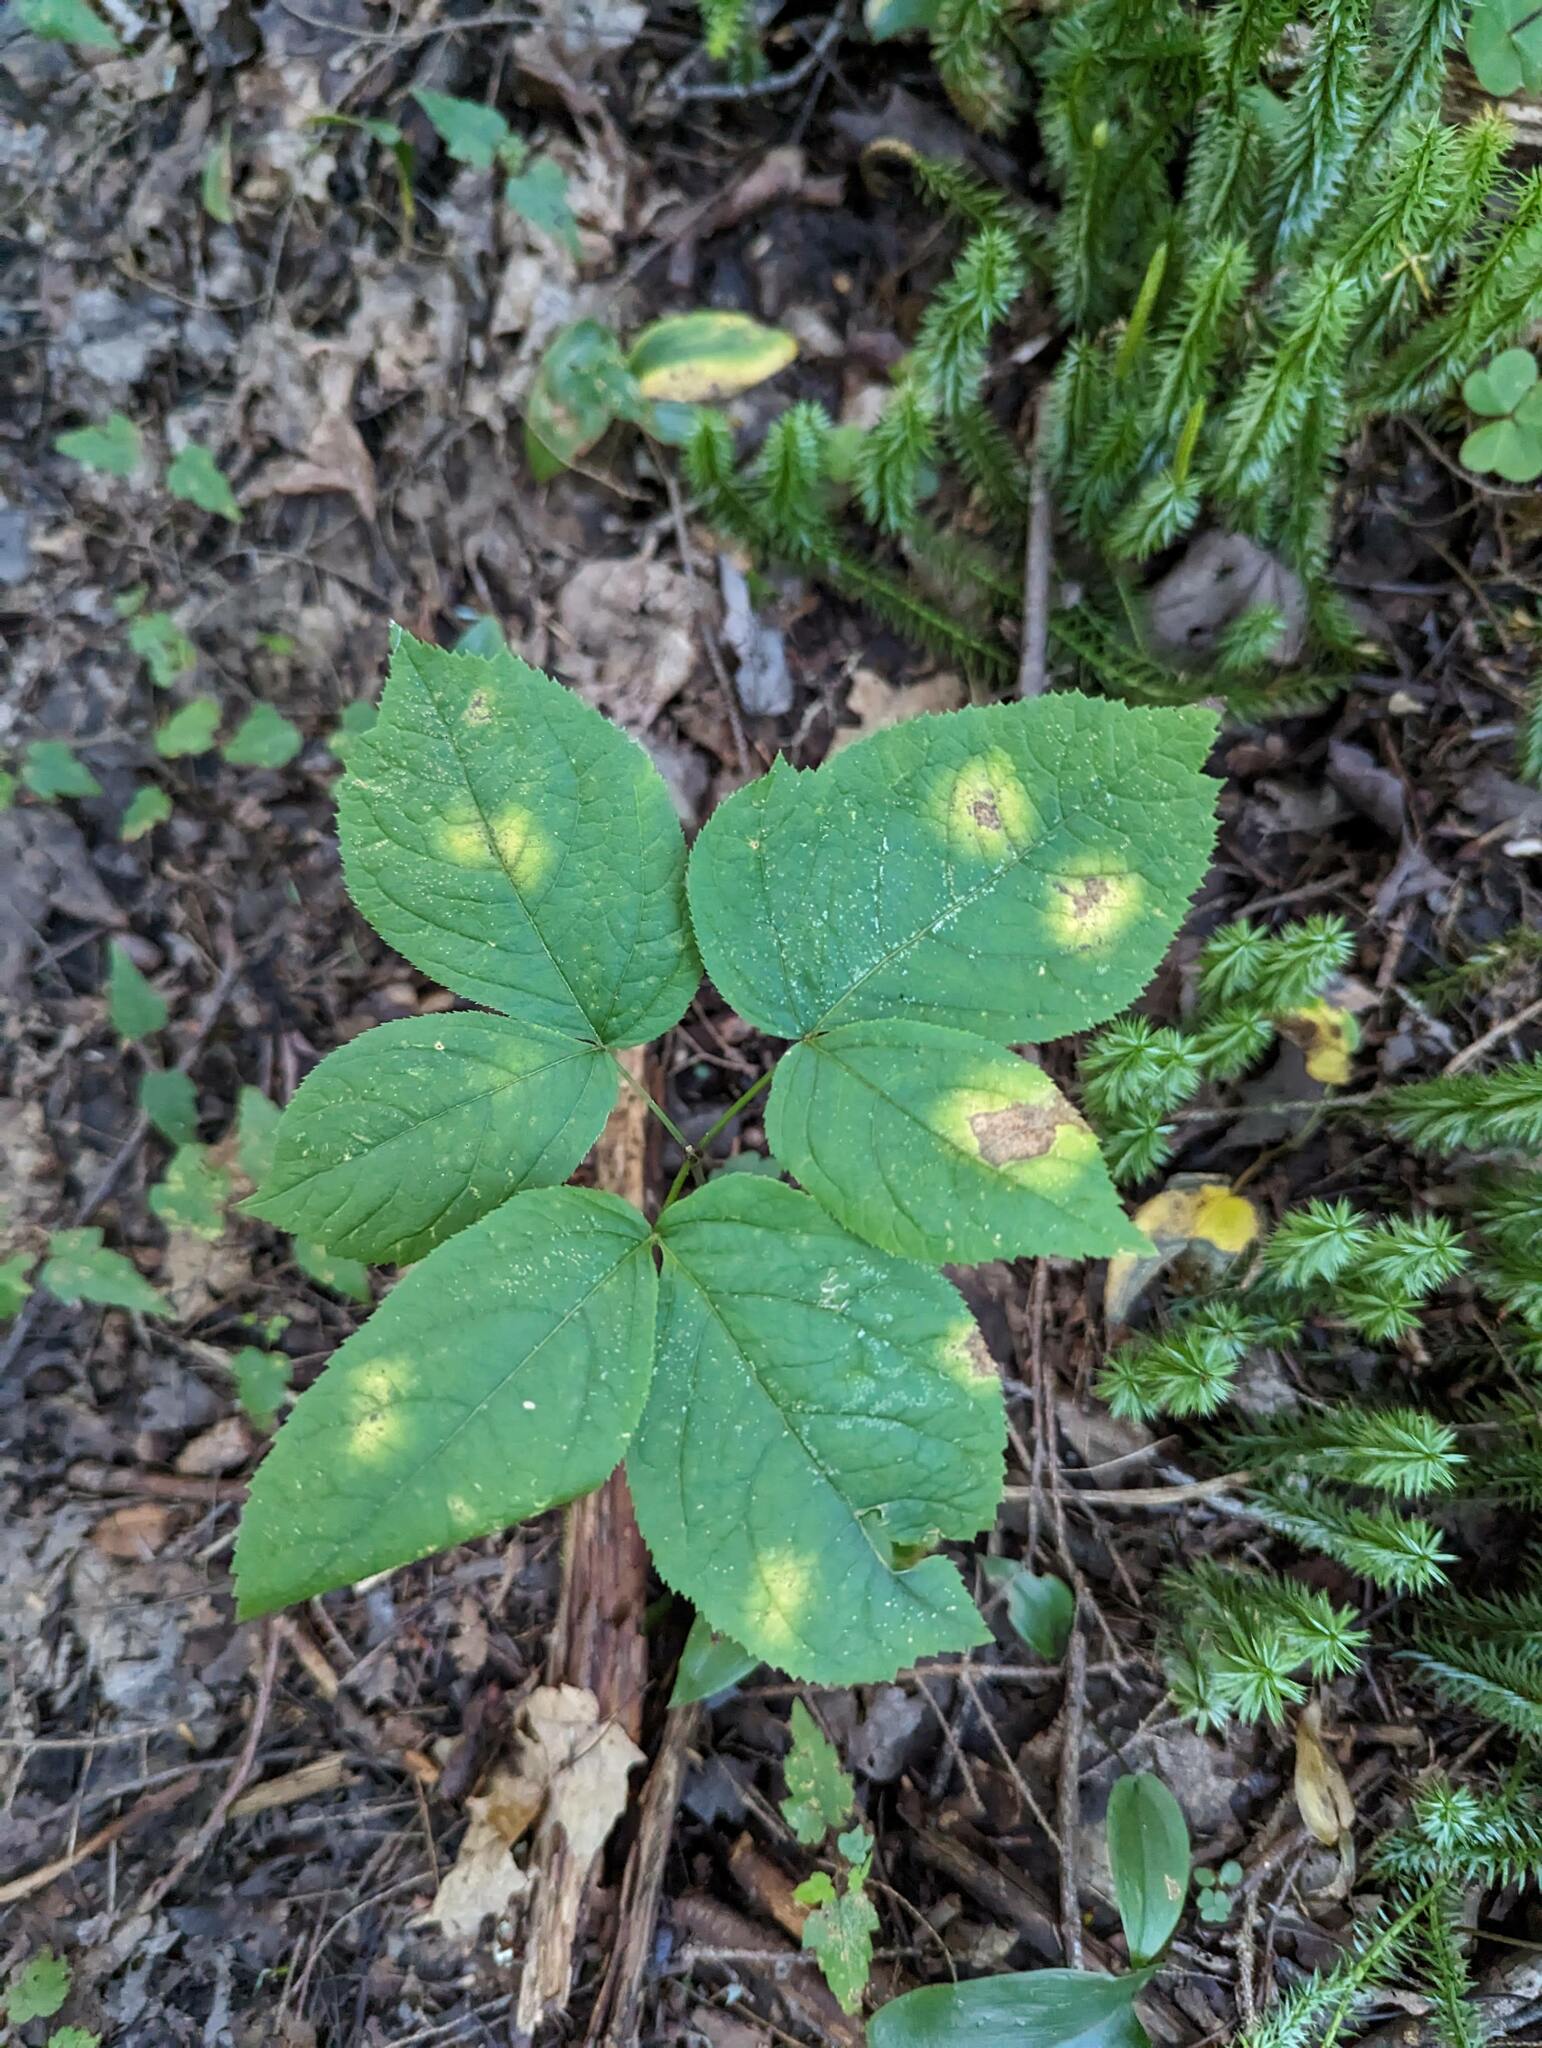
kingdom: Plantae
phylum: Tracheophyta
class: Magnoliopsida
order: Apiales
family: Araliaceae
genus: Aralia
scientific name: Aralia nudicaulis
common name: Wild sarsaparilla
